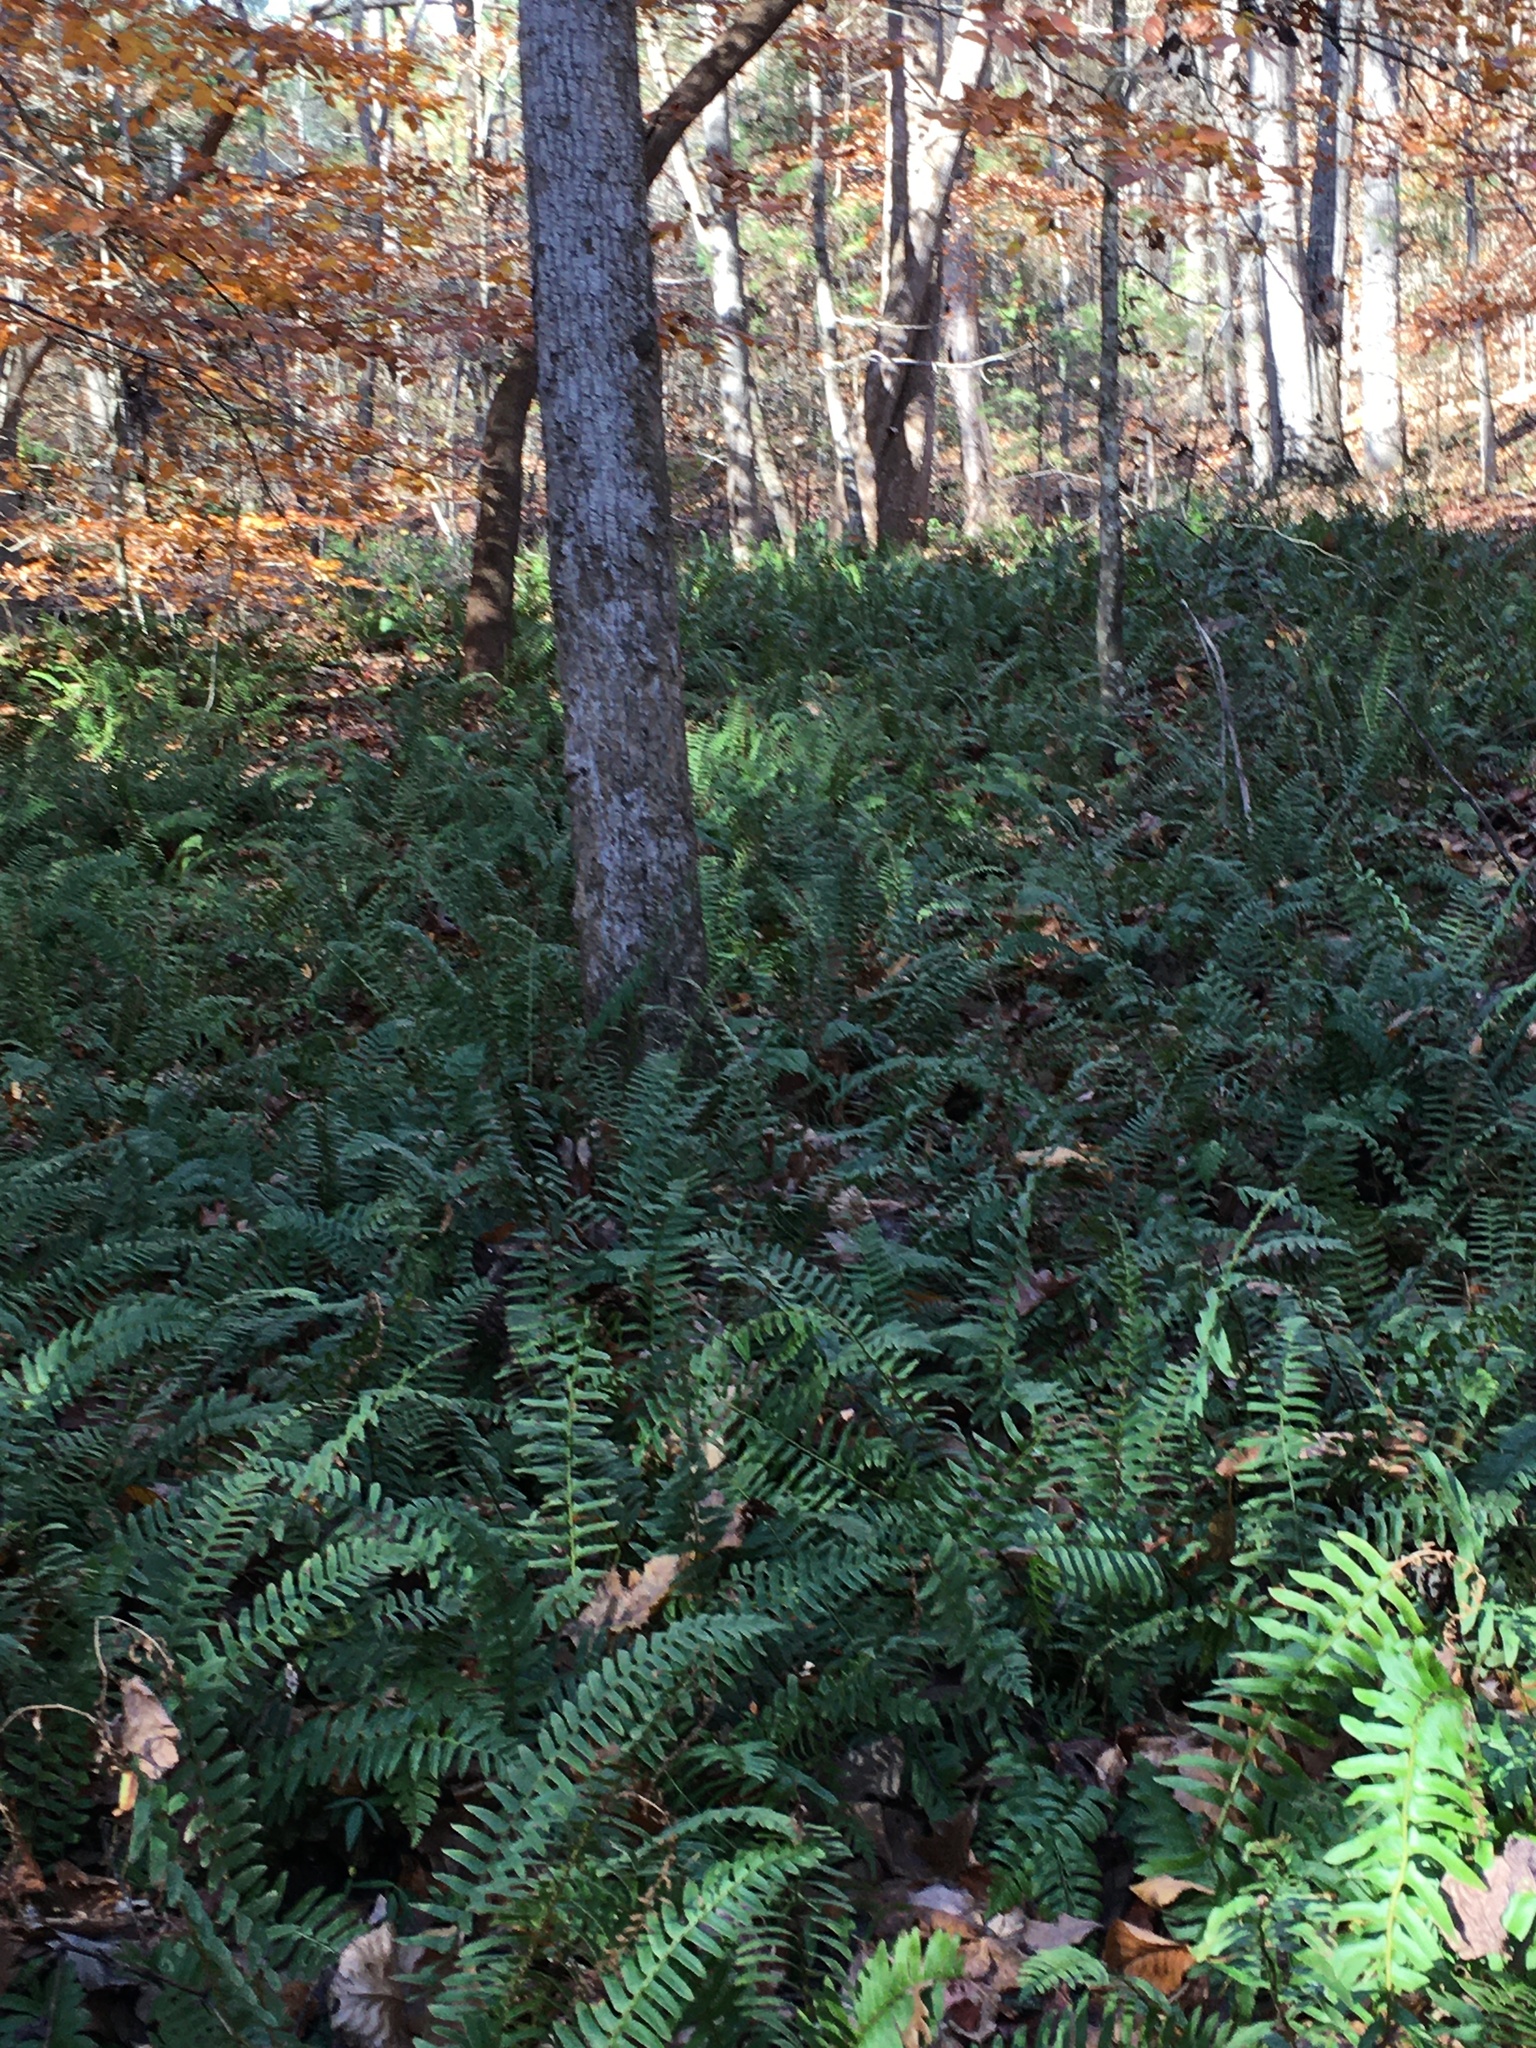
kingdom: Plantae
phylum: Tracheophyta
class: Polypodiopsida
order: Polypodiales
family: Dryopteridaceae
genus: Polystichum
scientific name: Polystichum acrostichoides
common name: Christmas fern
